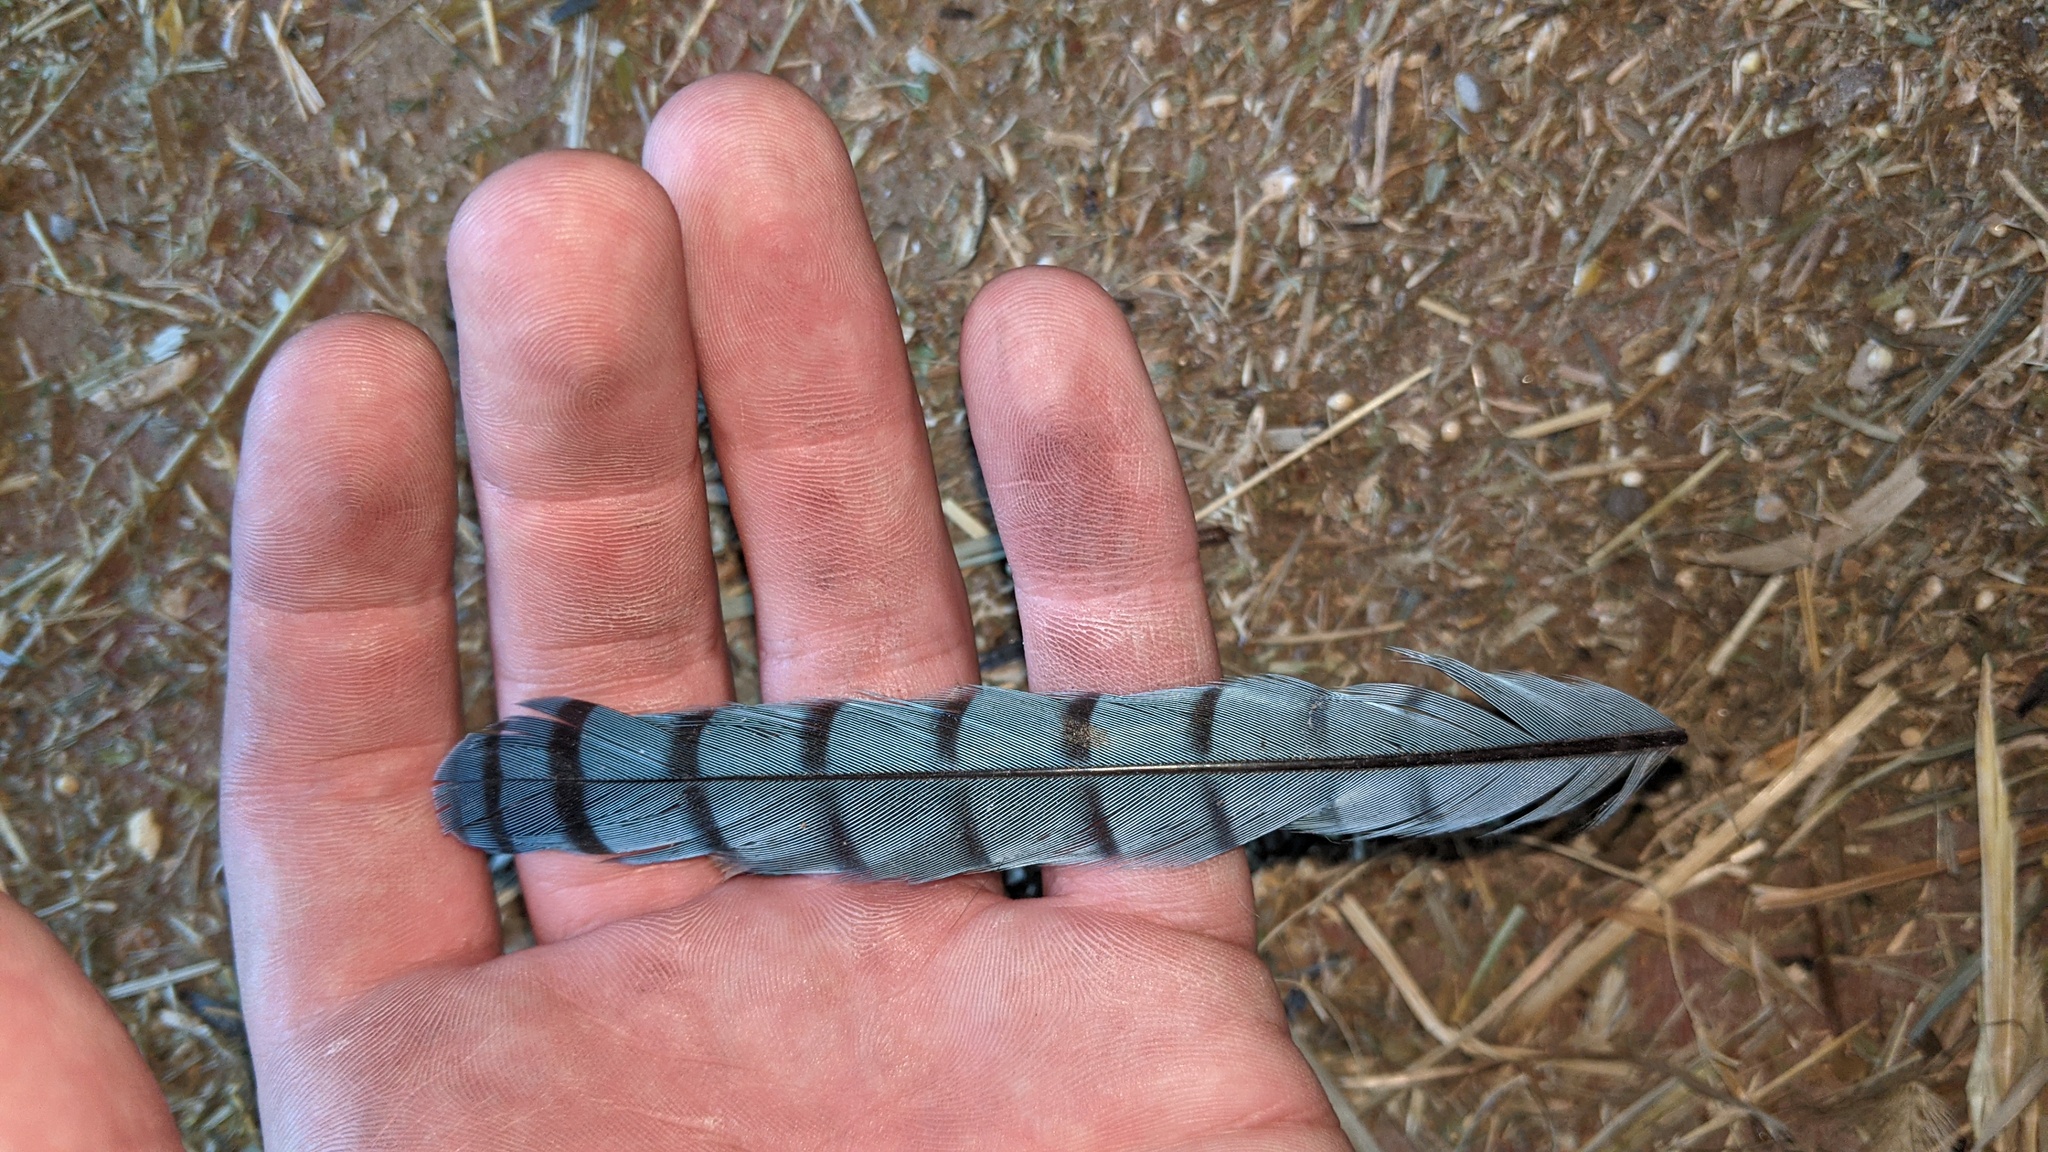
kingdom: Animalia
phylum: Chordata
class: Aves
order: Passeriformes
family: Corvidae
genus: Cyanocitta
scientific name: Cyanocitta cristata
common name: Blue jay
